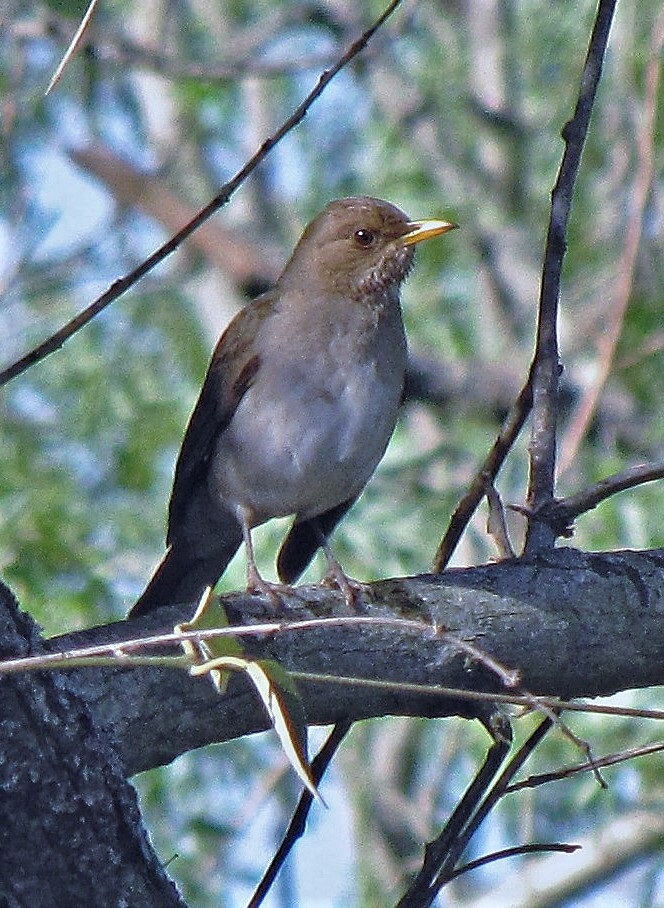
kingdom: Animalia
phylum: Chordata
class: Aves
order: Passeriformes
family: Turdidae
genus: Turdus
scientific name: Turdus amaurochalinus
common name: Creamy-bellied thrush
